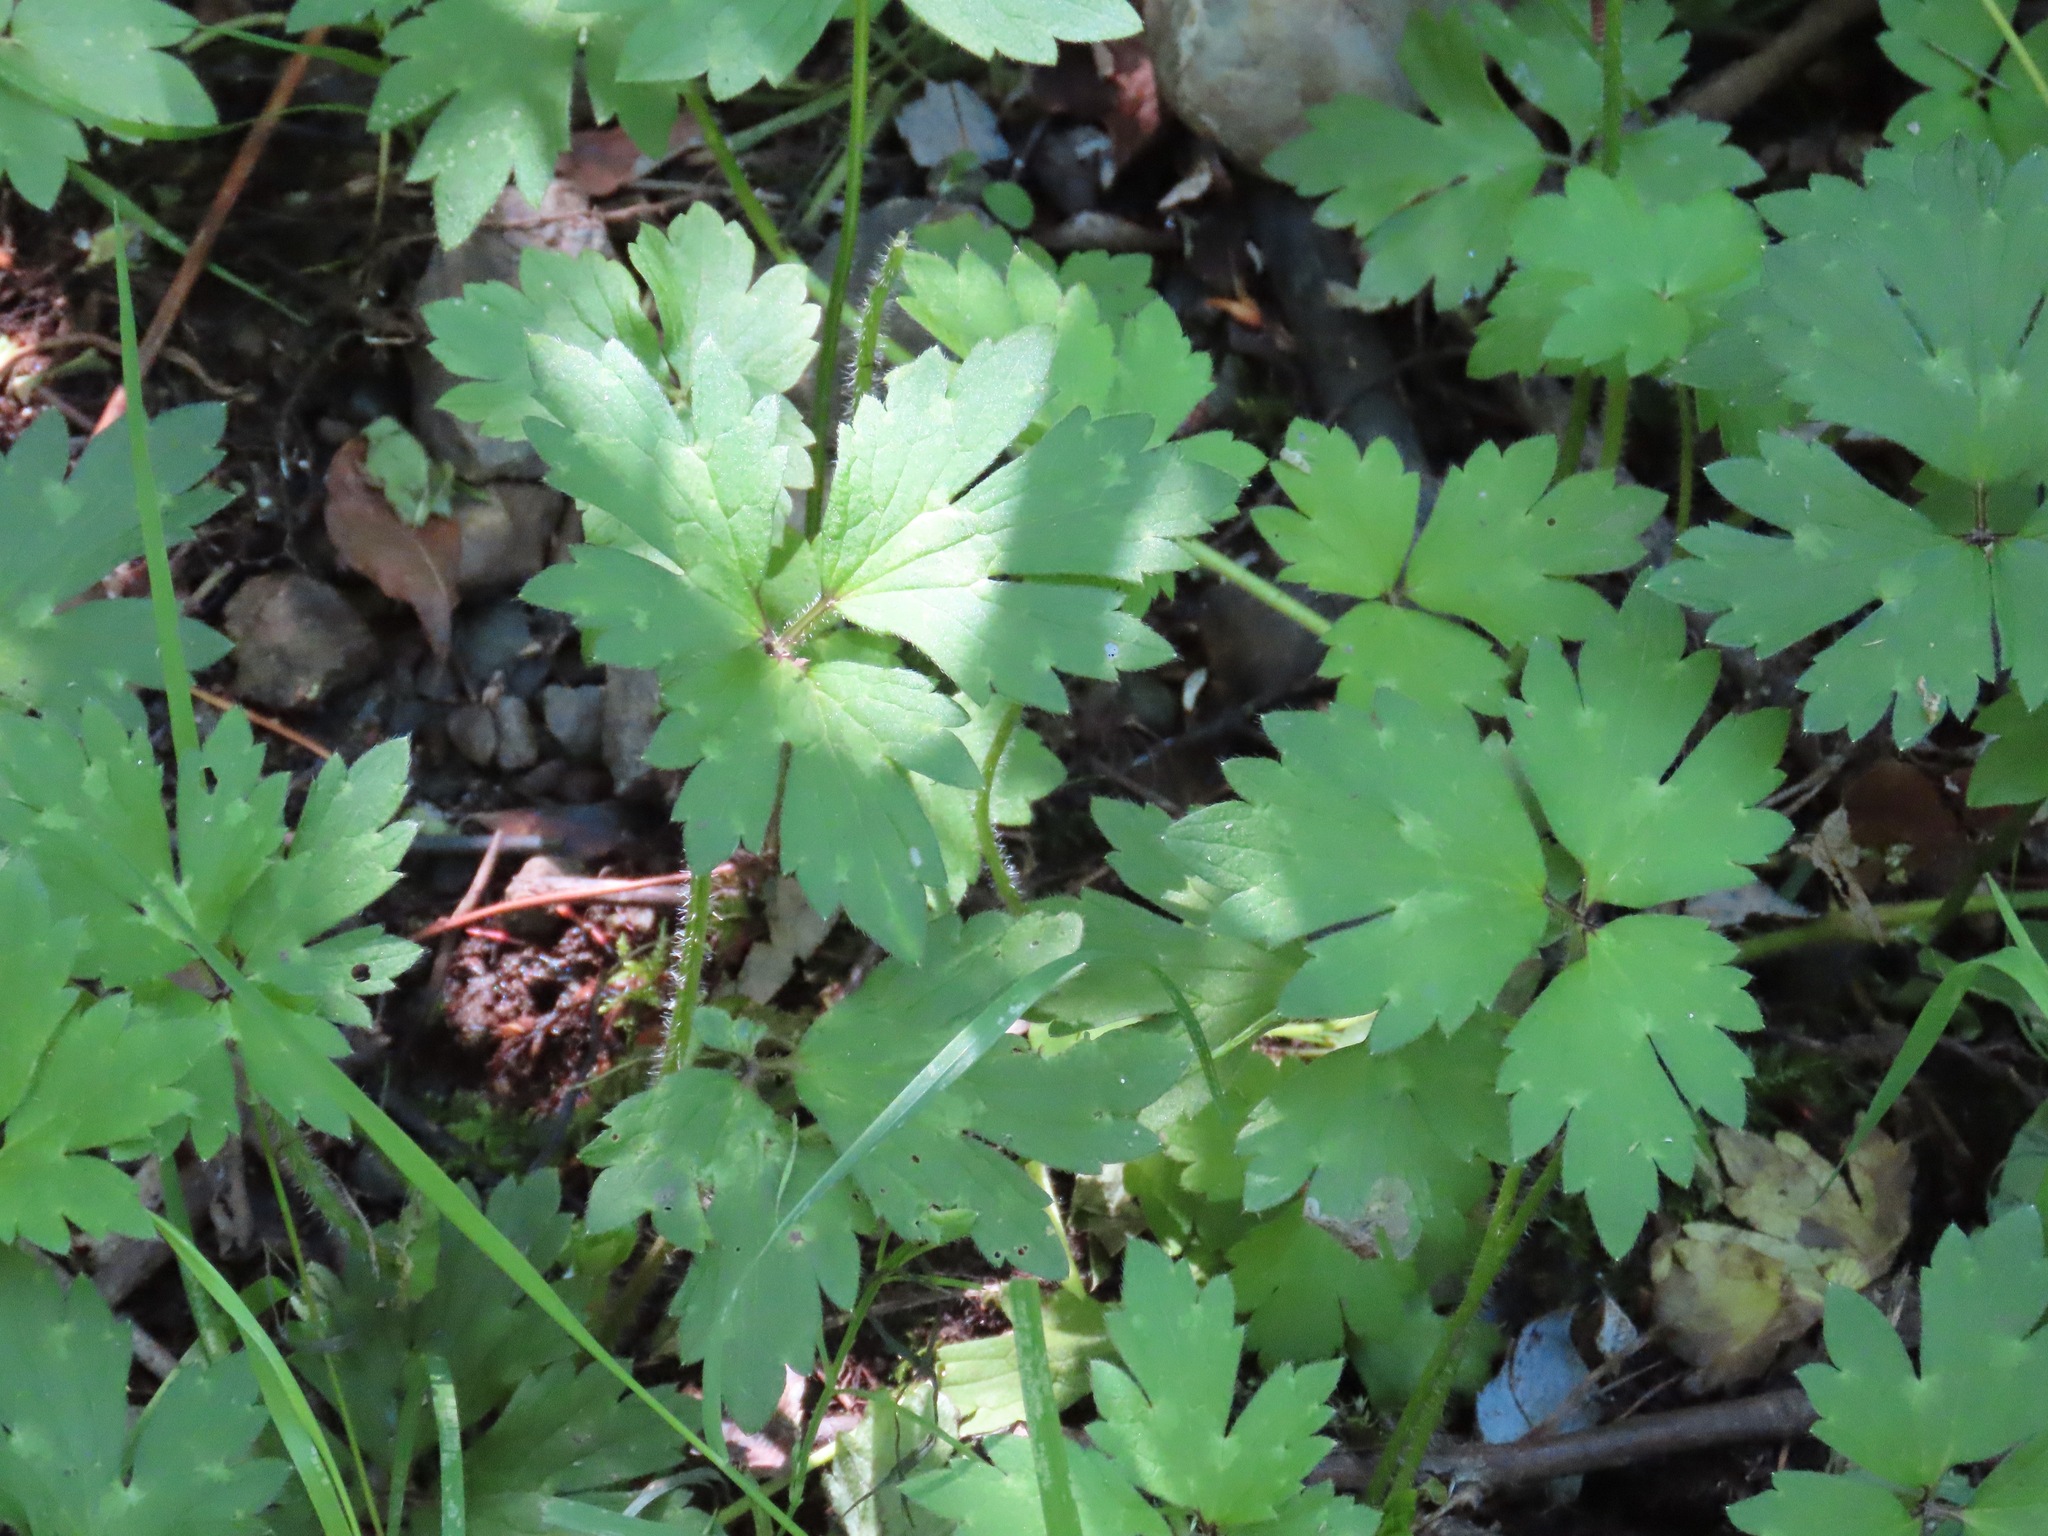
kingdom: Plantae
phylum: Tracheophyta
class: Magnoliopsida
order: Ranunculales
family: Ranunculaceae
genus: Ranunculus
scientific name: Ranunculus repens
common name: Creeping buttercup
